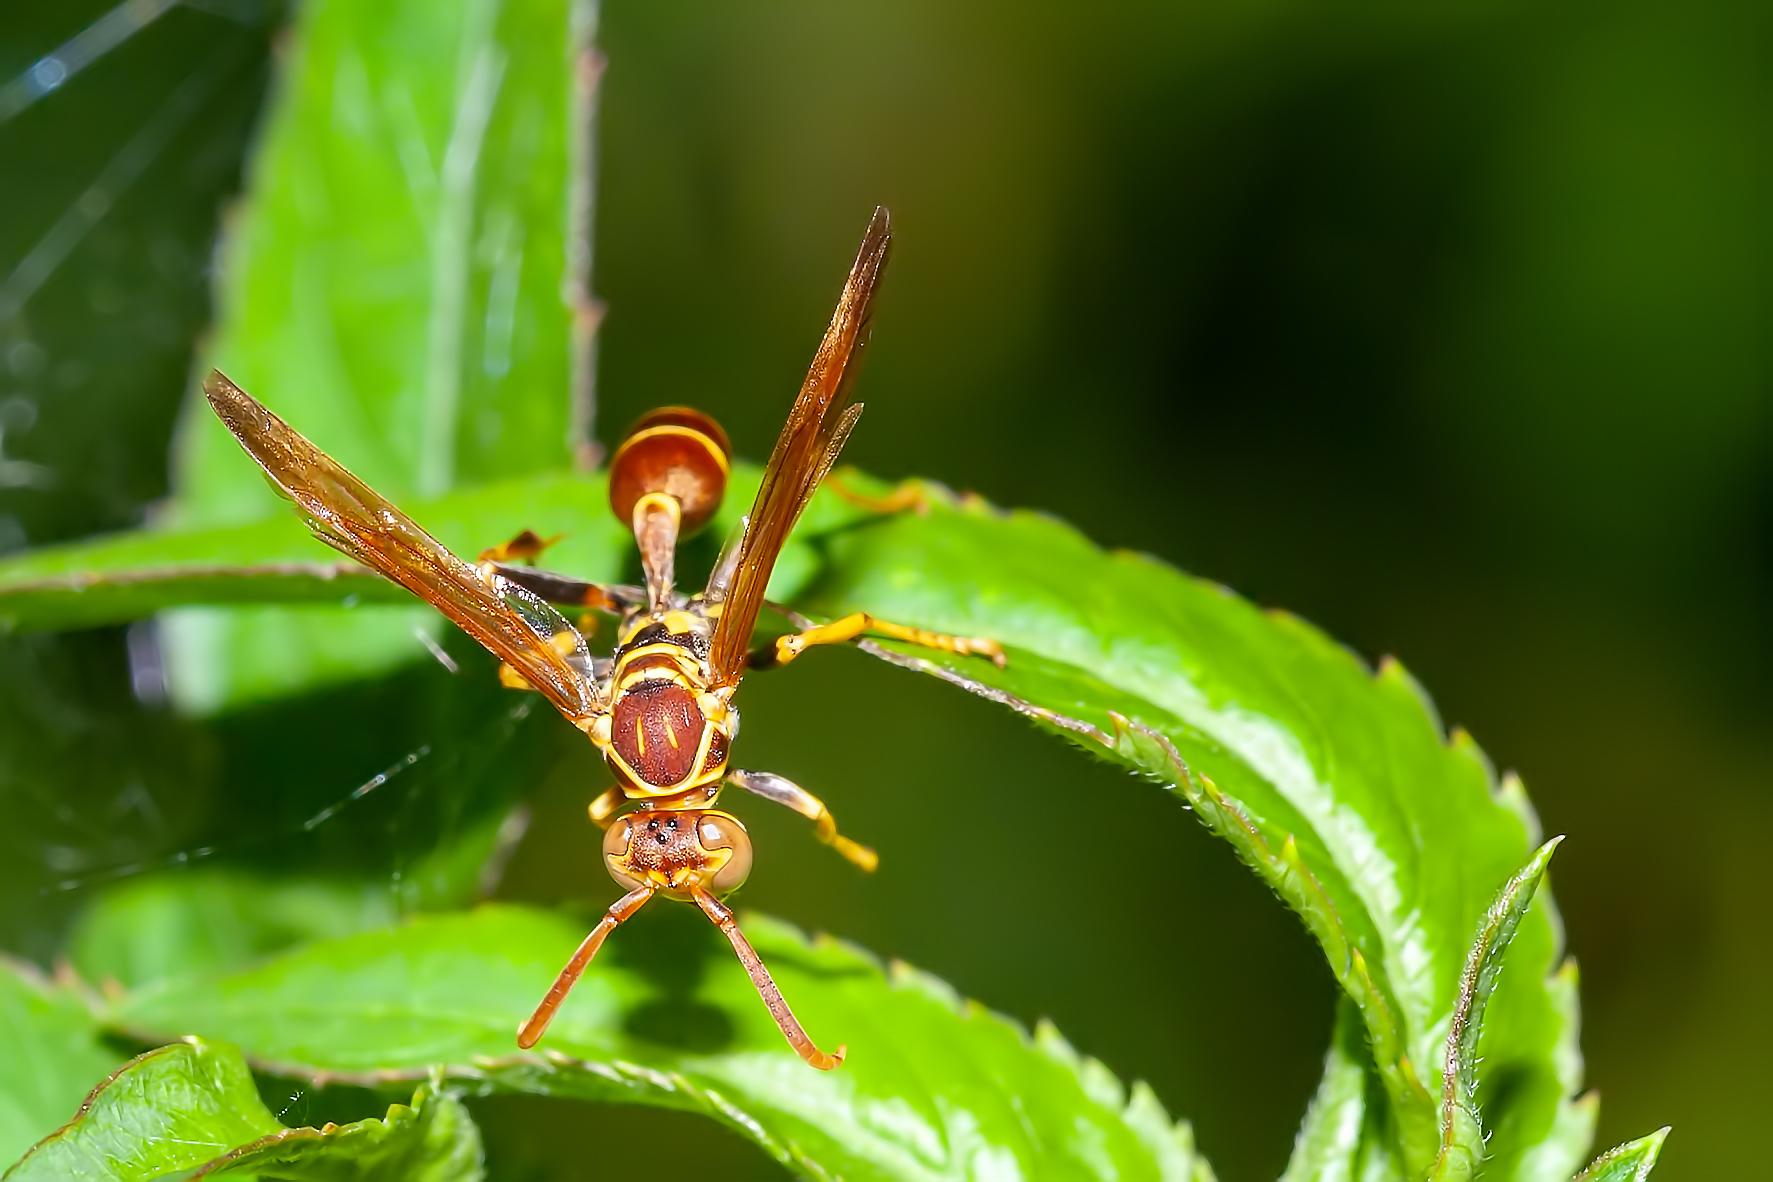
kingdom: Animalia
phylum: Arthropoda
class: Insecta
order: Hymenoptera
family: Vespidae
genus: Mischocyttarus
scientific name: Mischocyttarus mexicanus
